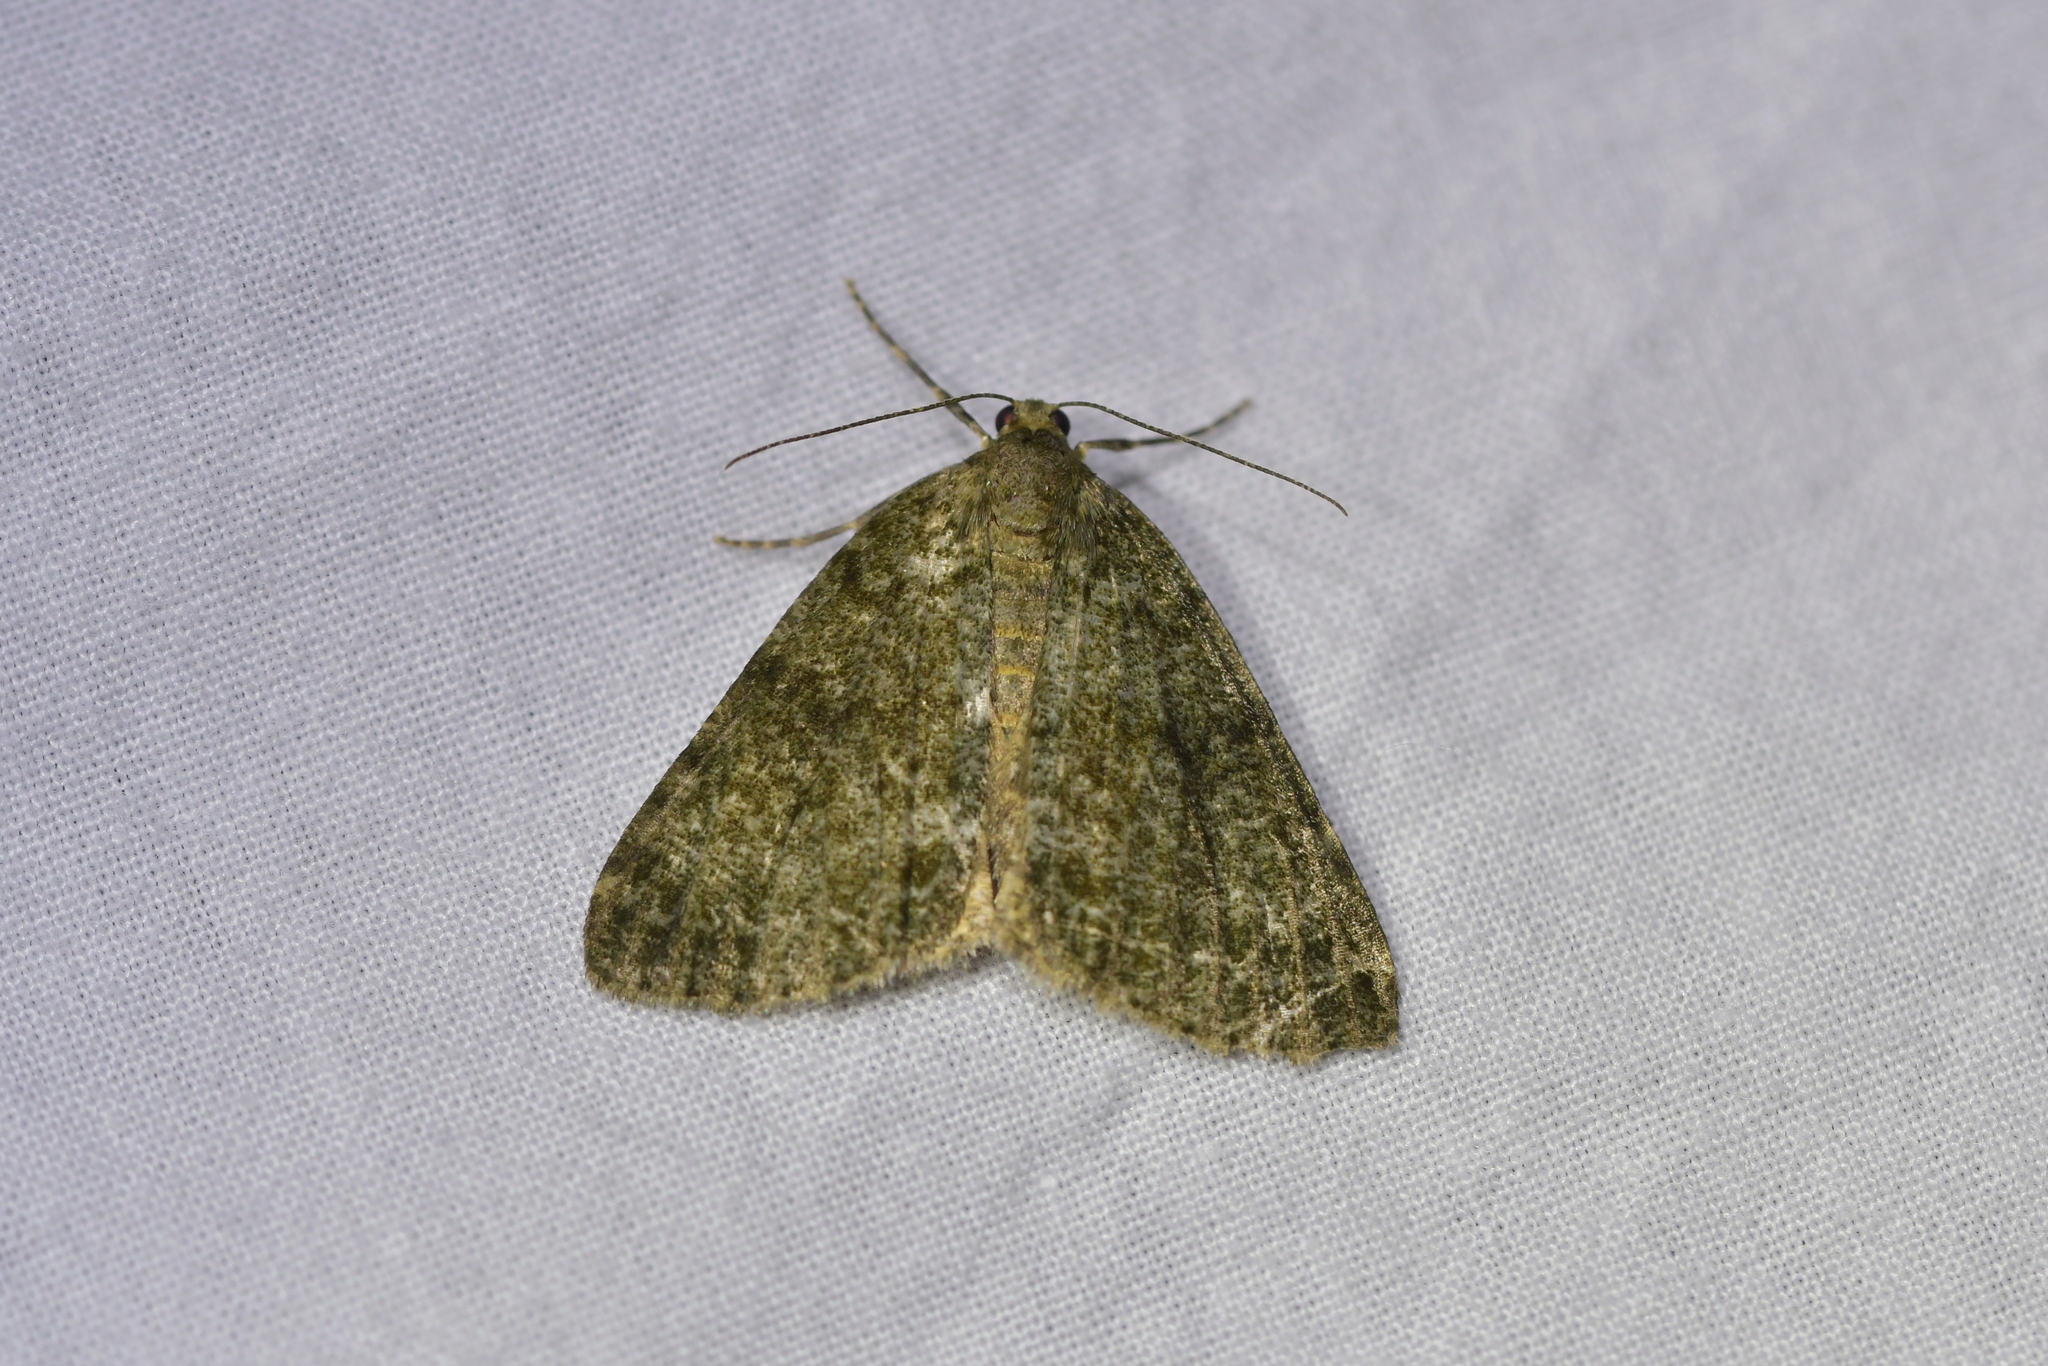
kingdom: Animalia
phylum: Arthropoda
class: Insecta
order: Lepidoptera
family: Geometridae
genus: Pseudocoremia
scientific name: Pseudocoremia indistincta
